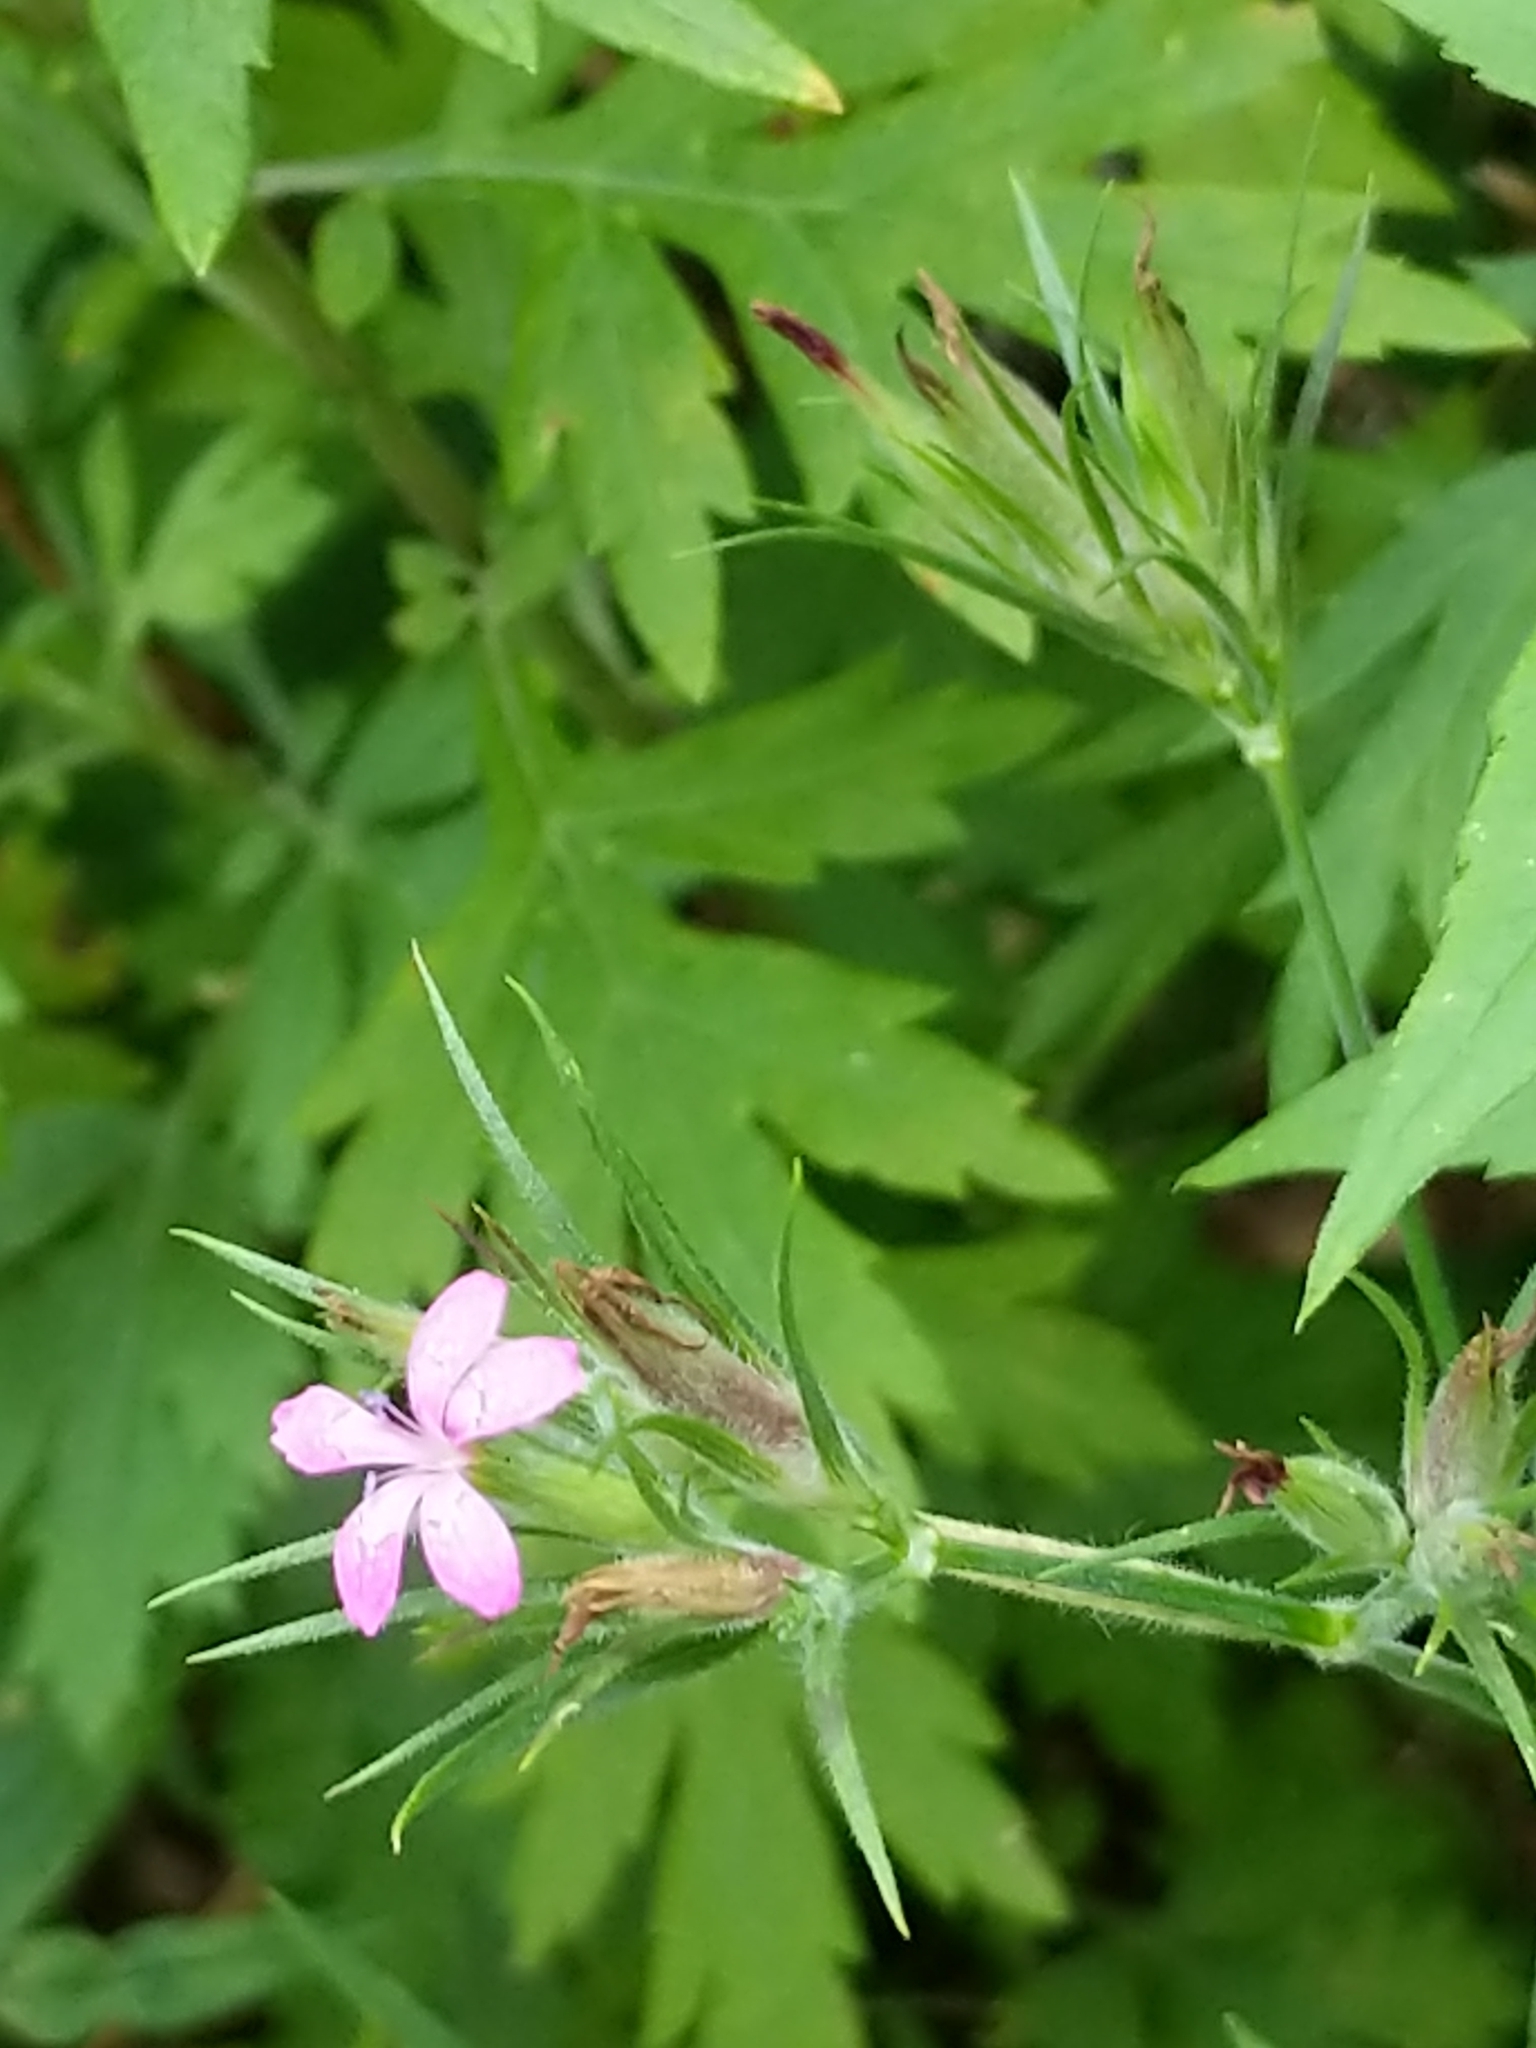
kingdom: Plantae
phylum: Tracheophyta
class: Magnoliopsida
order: Caryophyllales
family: Caryophyllaceae
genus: Dianthus
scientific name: Dianthus armeria
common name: Deptford pink
